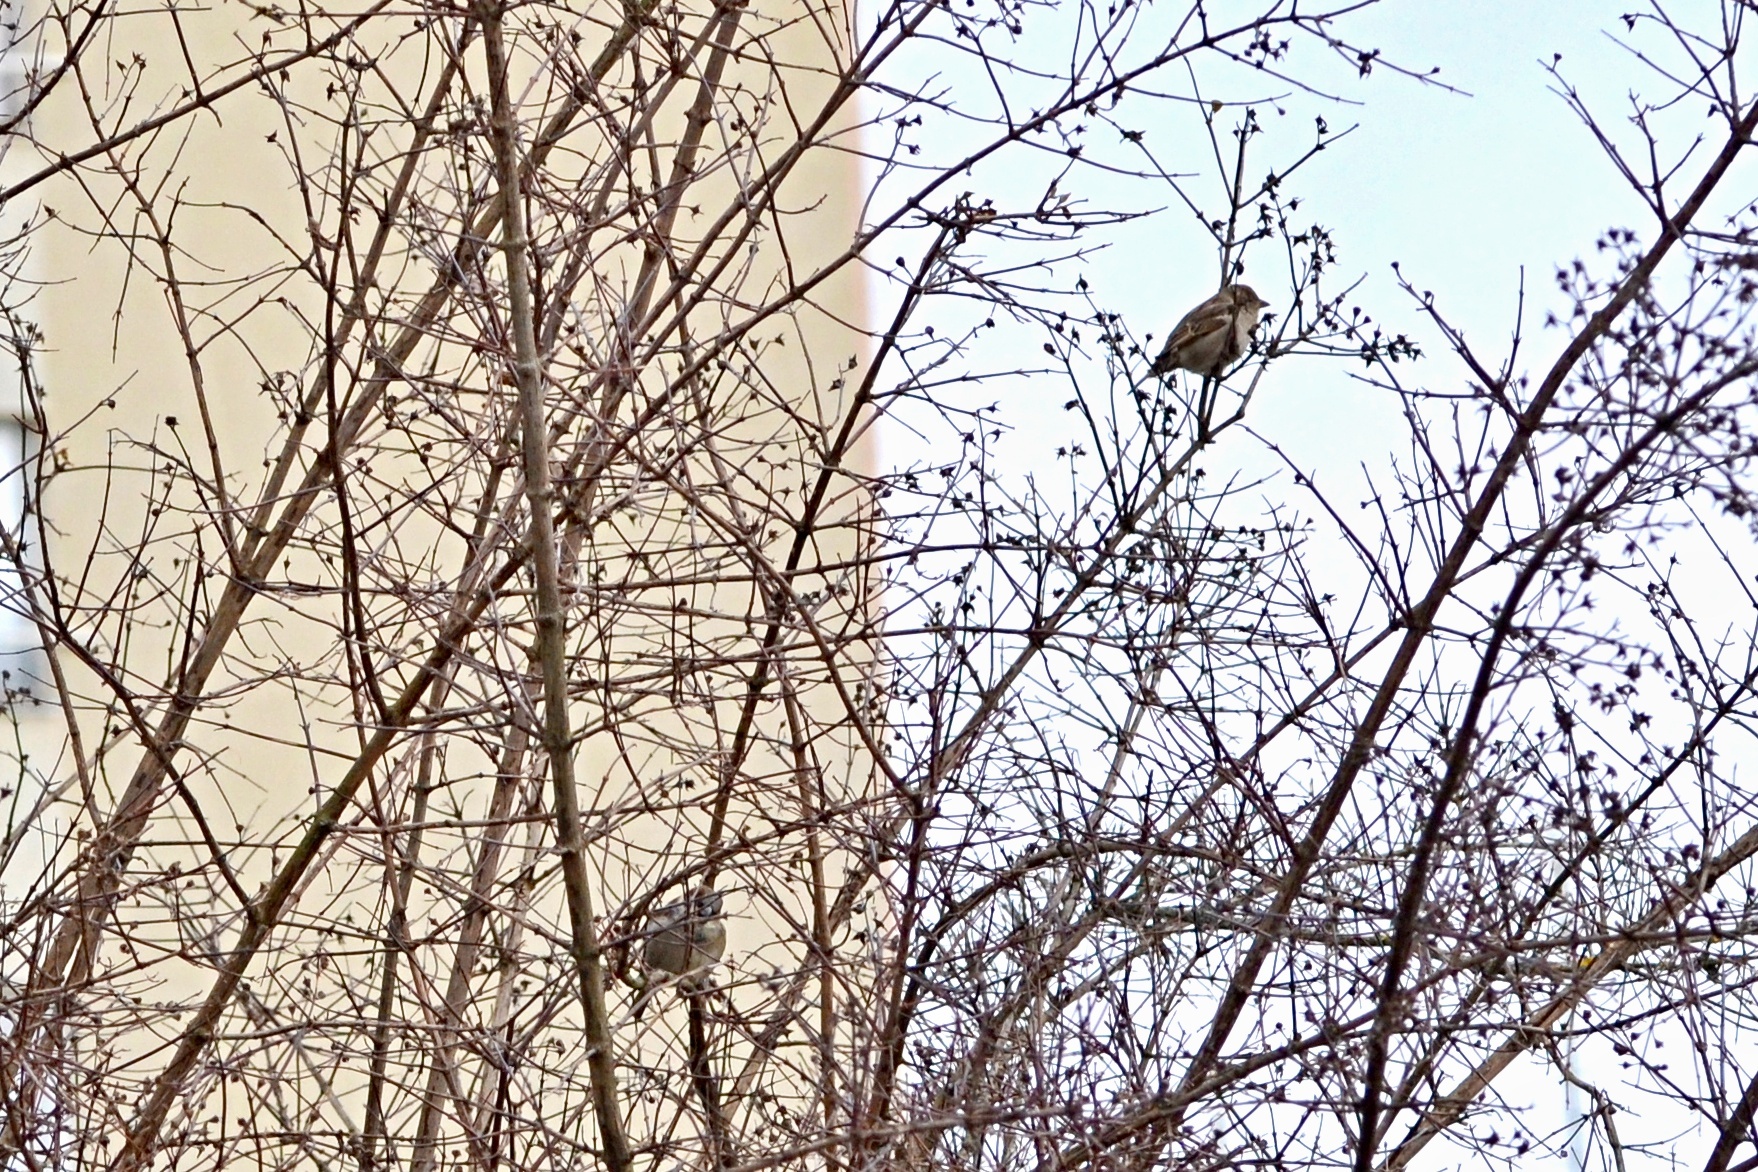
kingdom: Animalia
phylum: Chordata
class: Aves
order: Passeriformes
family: Passeridae
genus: Passer
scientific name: Passer domesticus
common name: House sparrow
